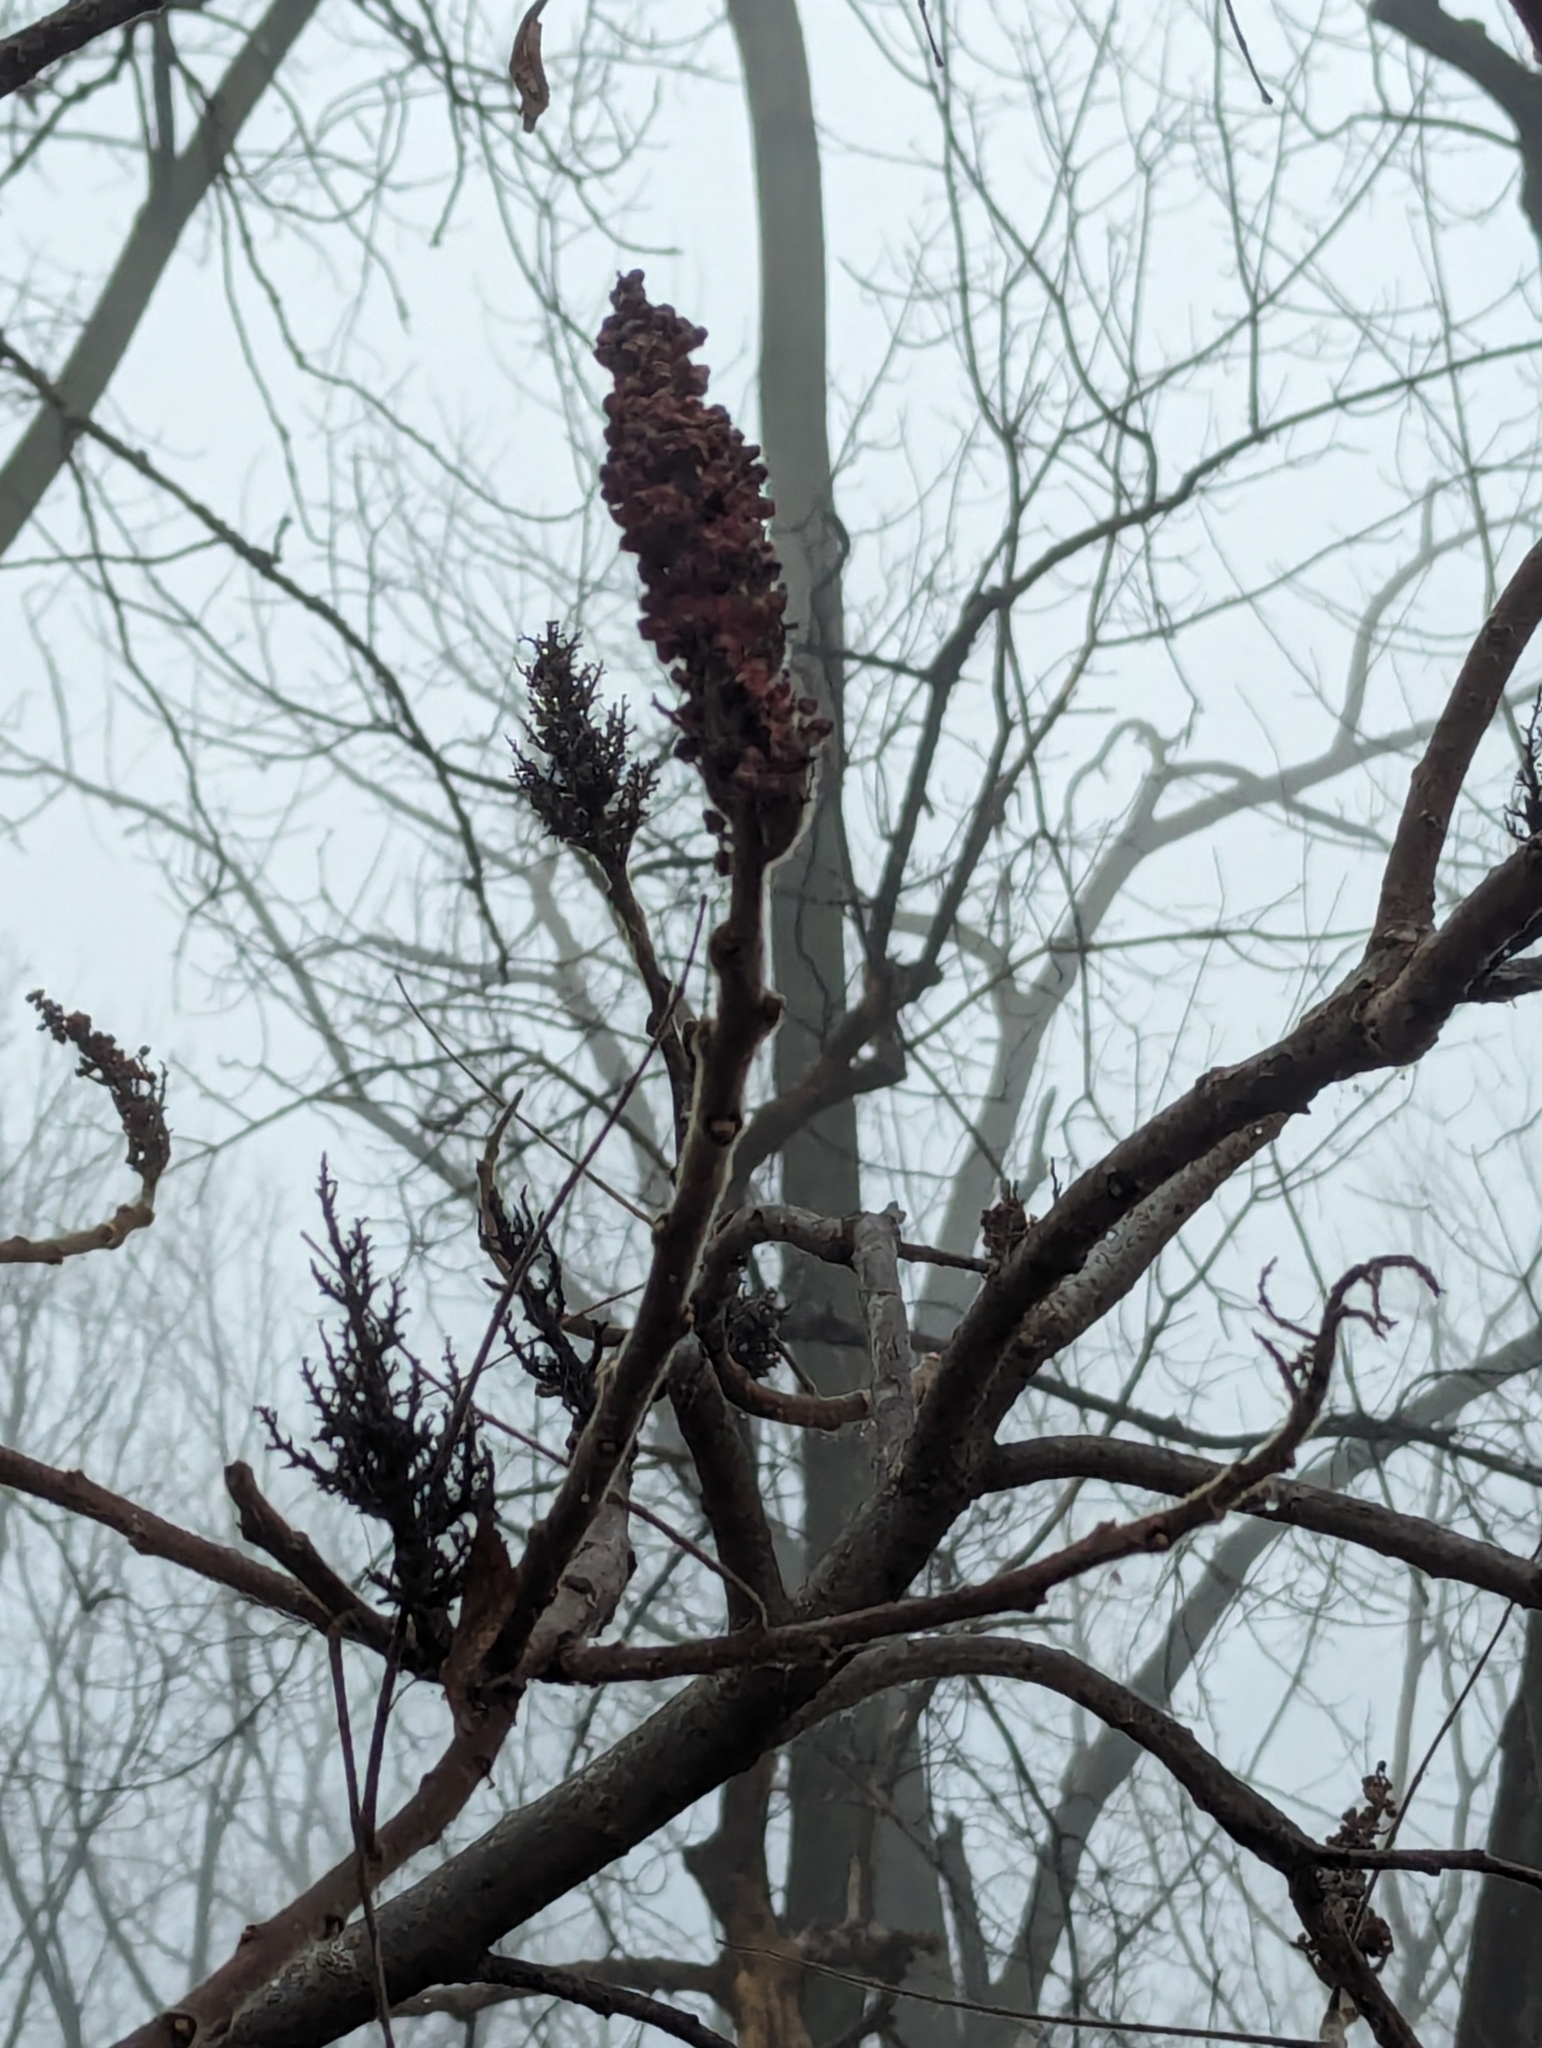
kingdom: Plantae
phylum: Tracheophyta
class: Magnoliopsida
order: Sapindales
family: Anacardiaceae
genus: Rhus
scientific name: Rhus typhina
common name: Staghorn sumac
